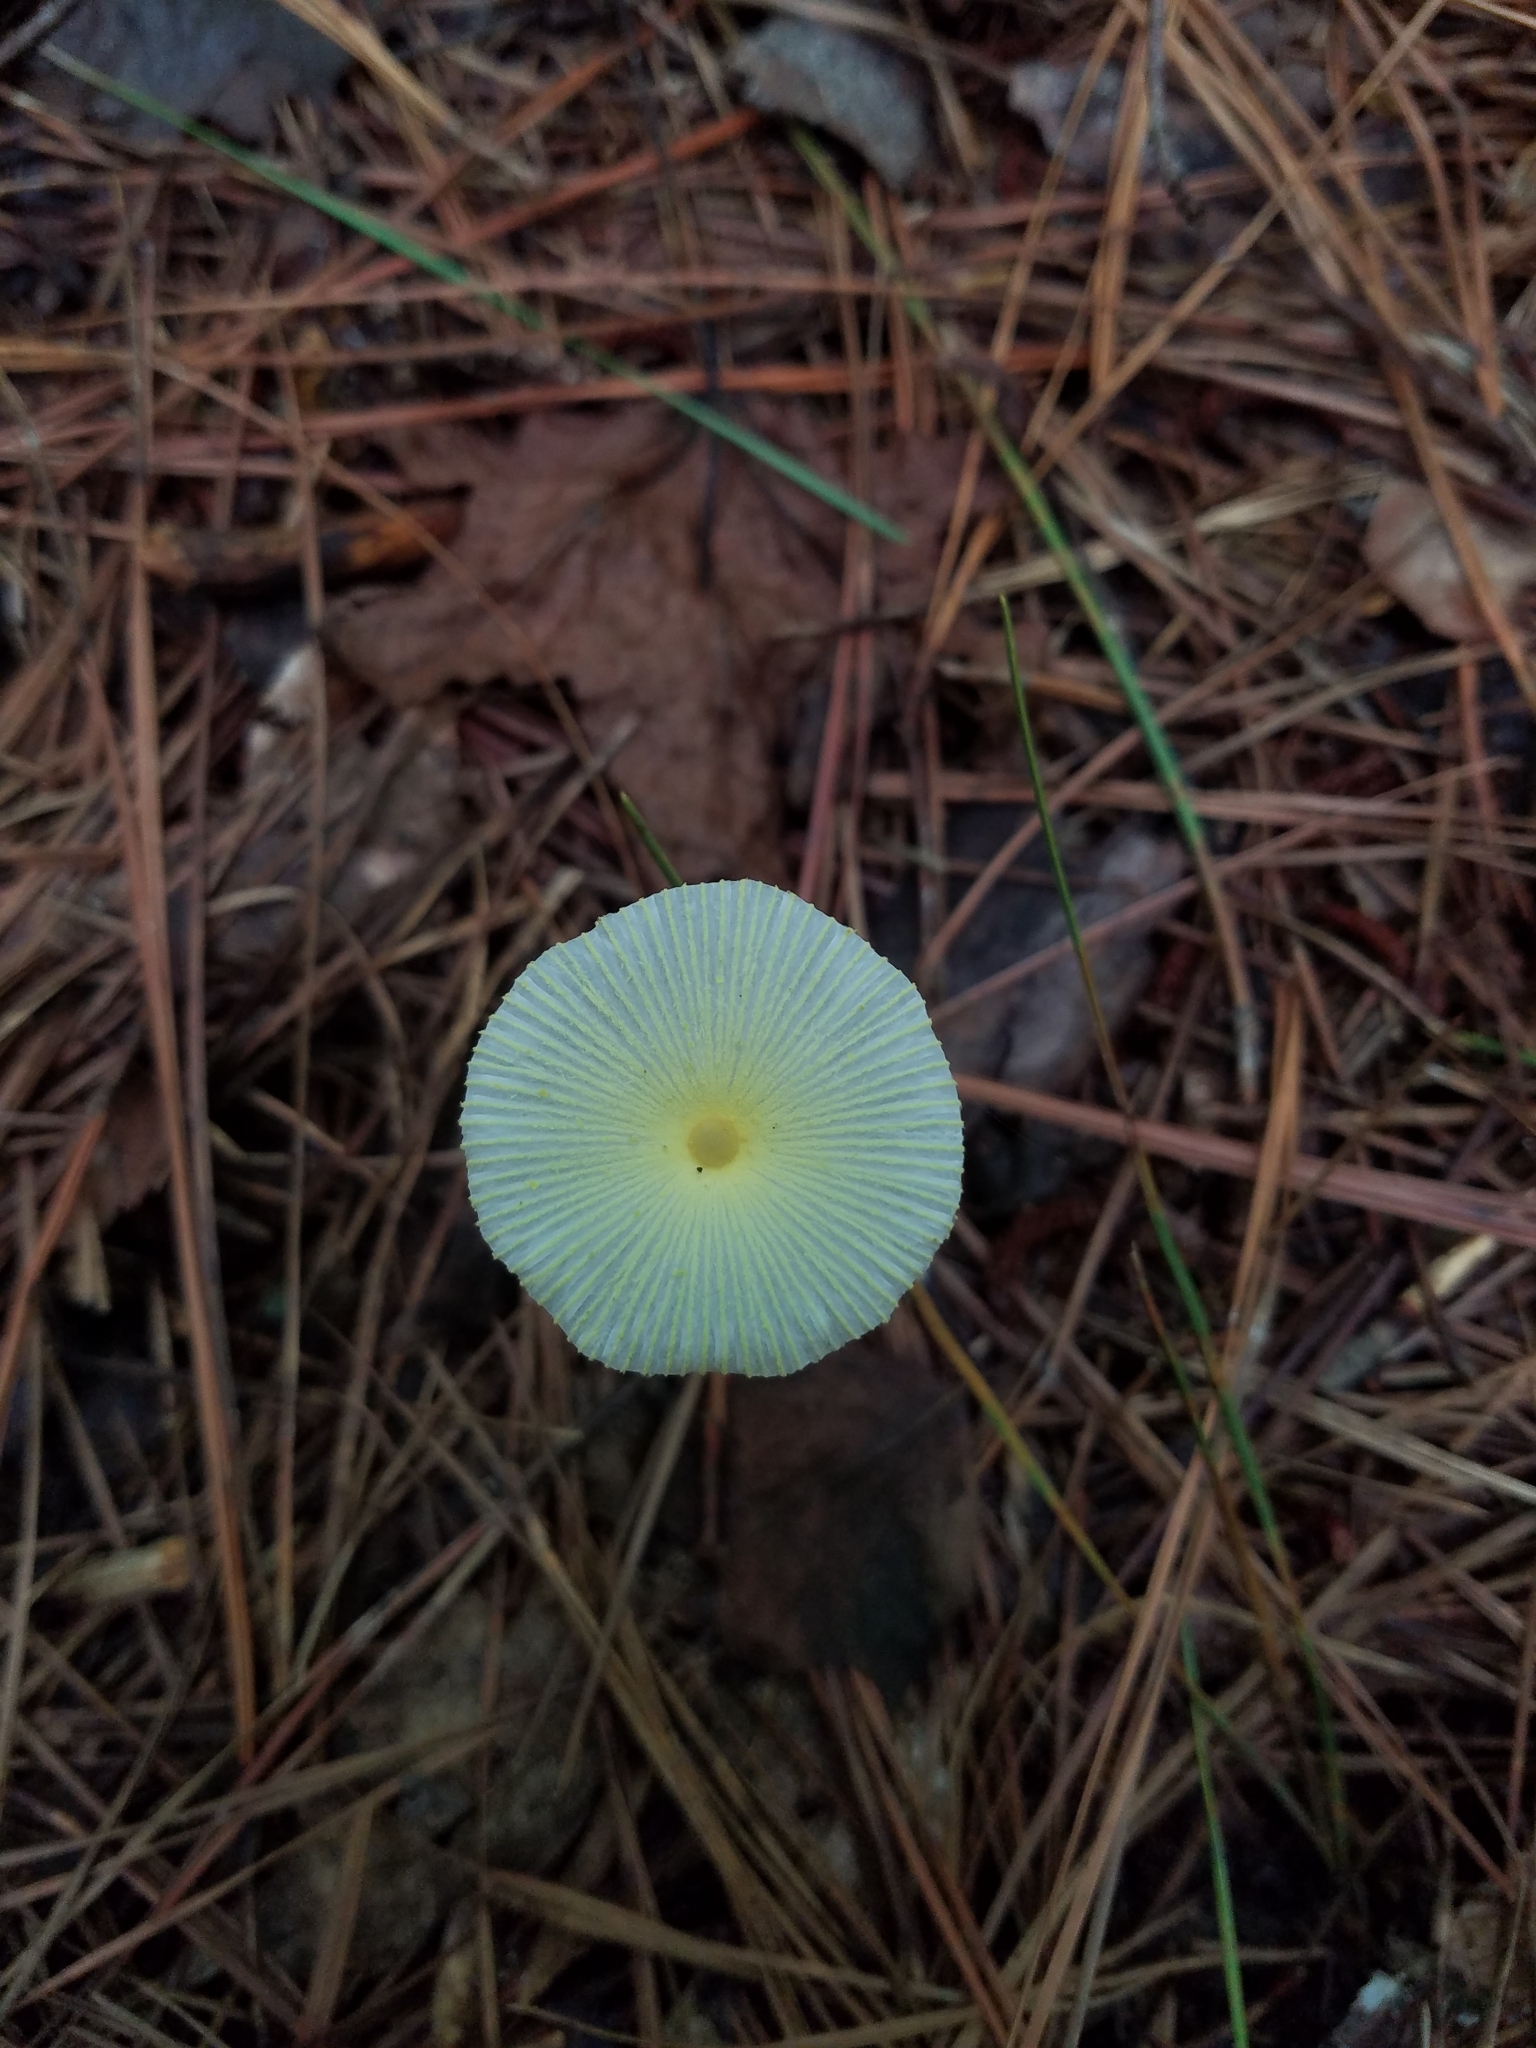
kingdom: Fungi
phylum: Basidiomycota
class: Agaricomycetes
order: Agaricales
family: Agaricaceae
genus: Leucocoprinus
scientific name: Leucocoprinus fragilissimus
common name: Fragile dapperling
